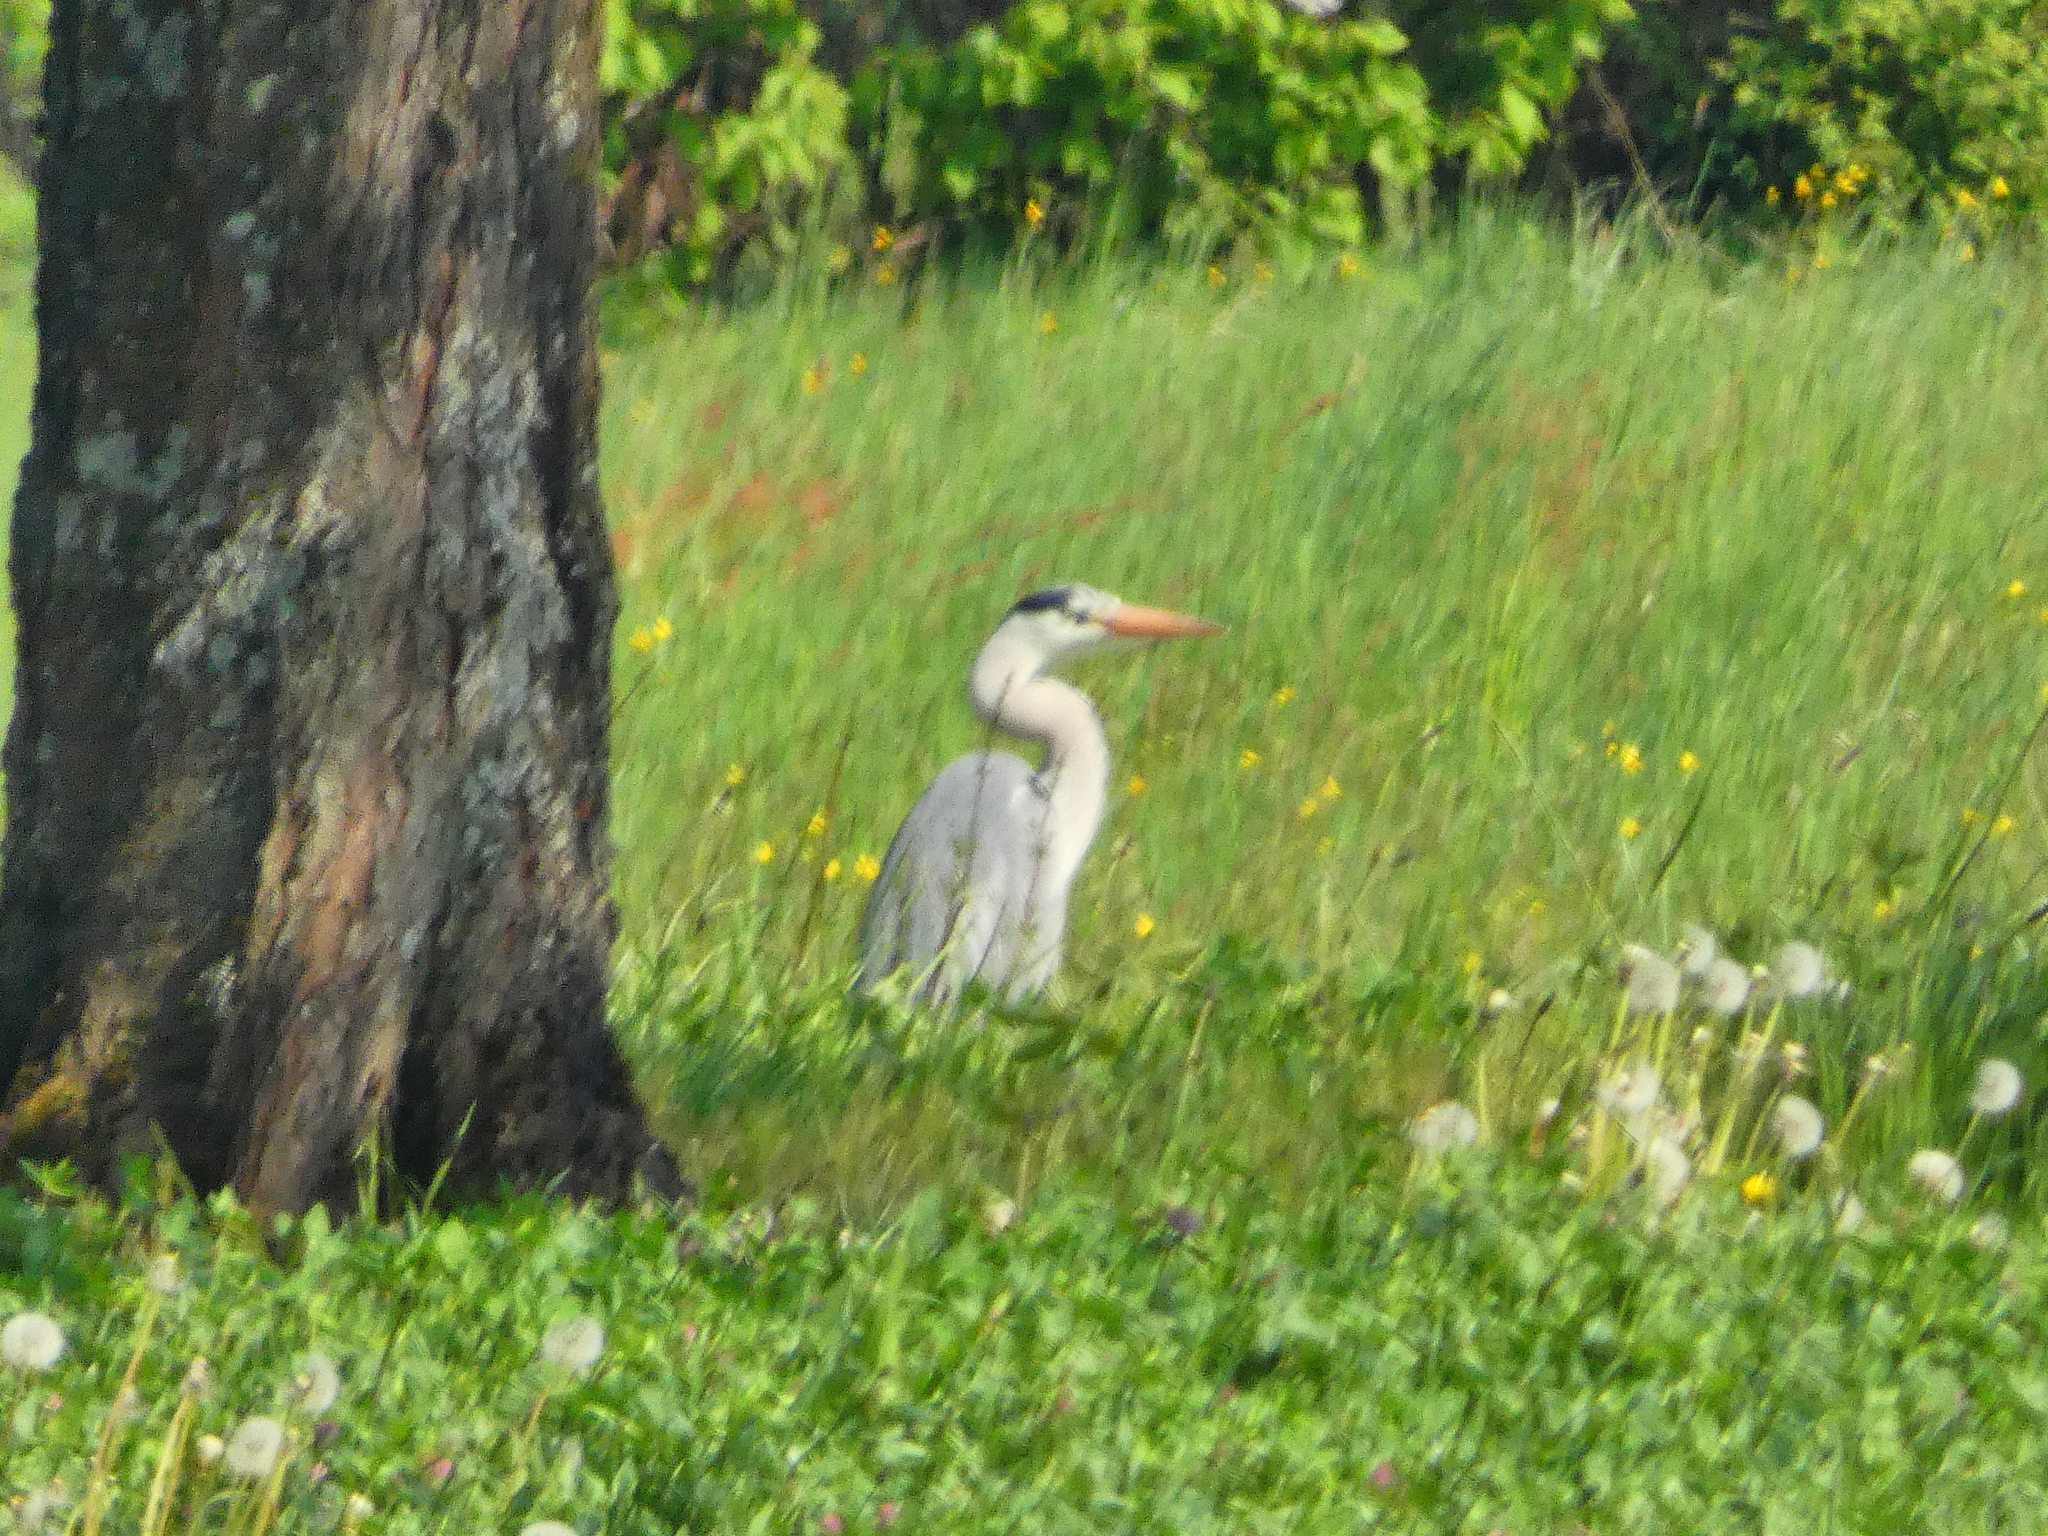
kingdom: Animalia
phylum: Chordata
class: Aves
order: Pelecaniformes
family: Ardeidae
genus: Ardea
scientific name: Ardea cinerea
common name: Grey heron
